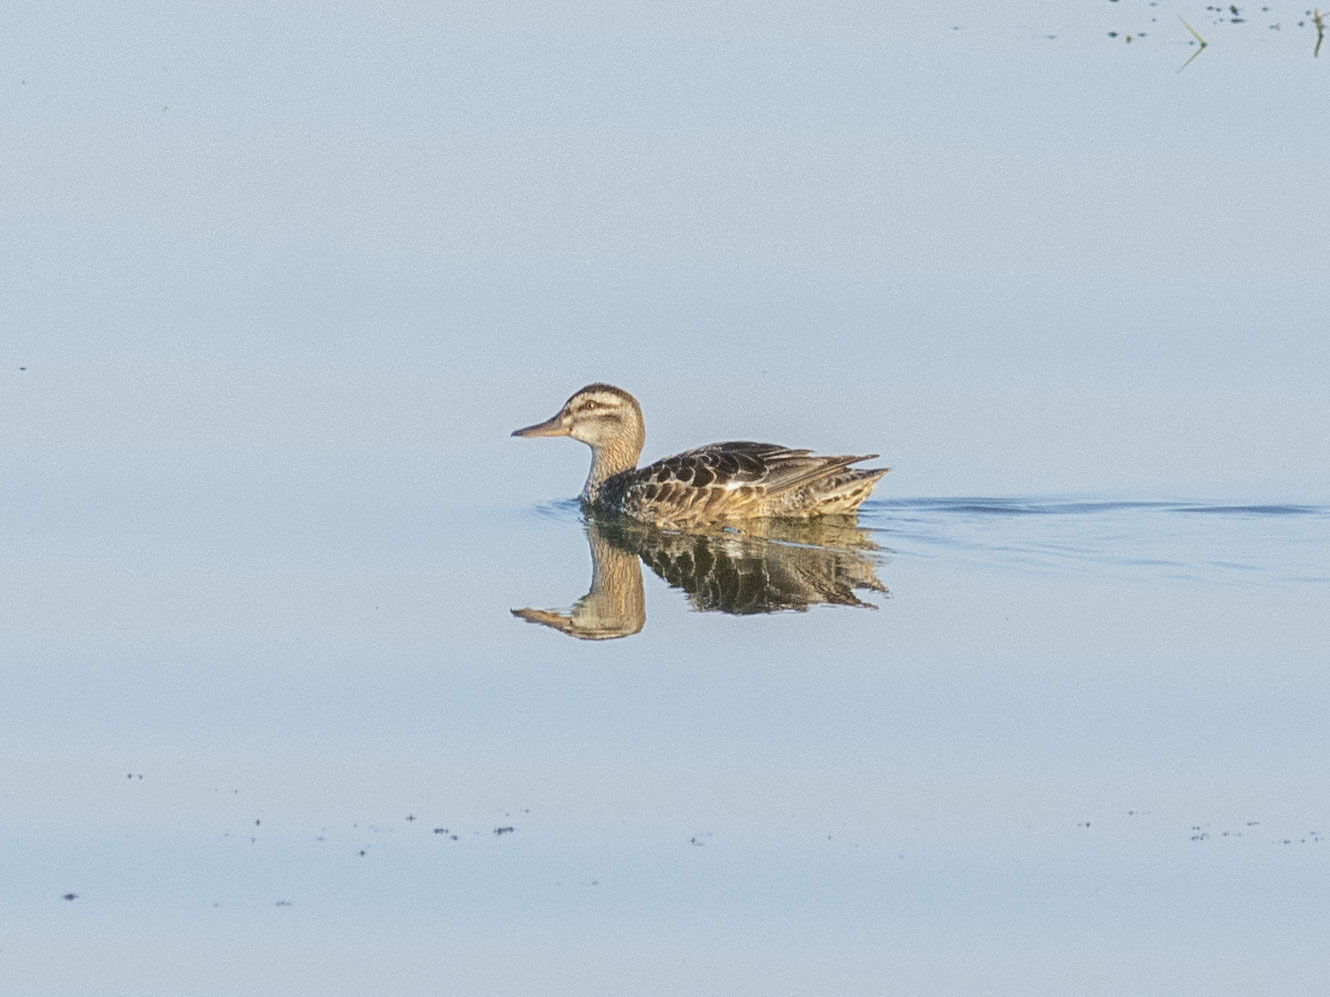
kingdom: Animalia
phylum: Chordata
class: Aves
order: Anseriformes
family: Anatidae
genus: Spatula
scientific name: Spatula querquedula
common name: Garganey
